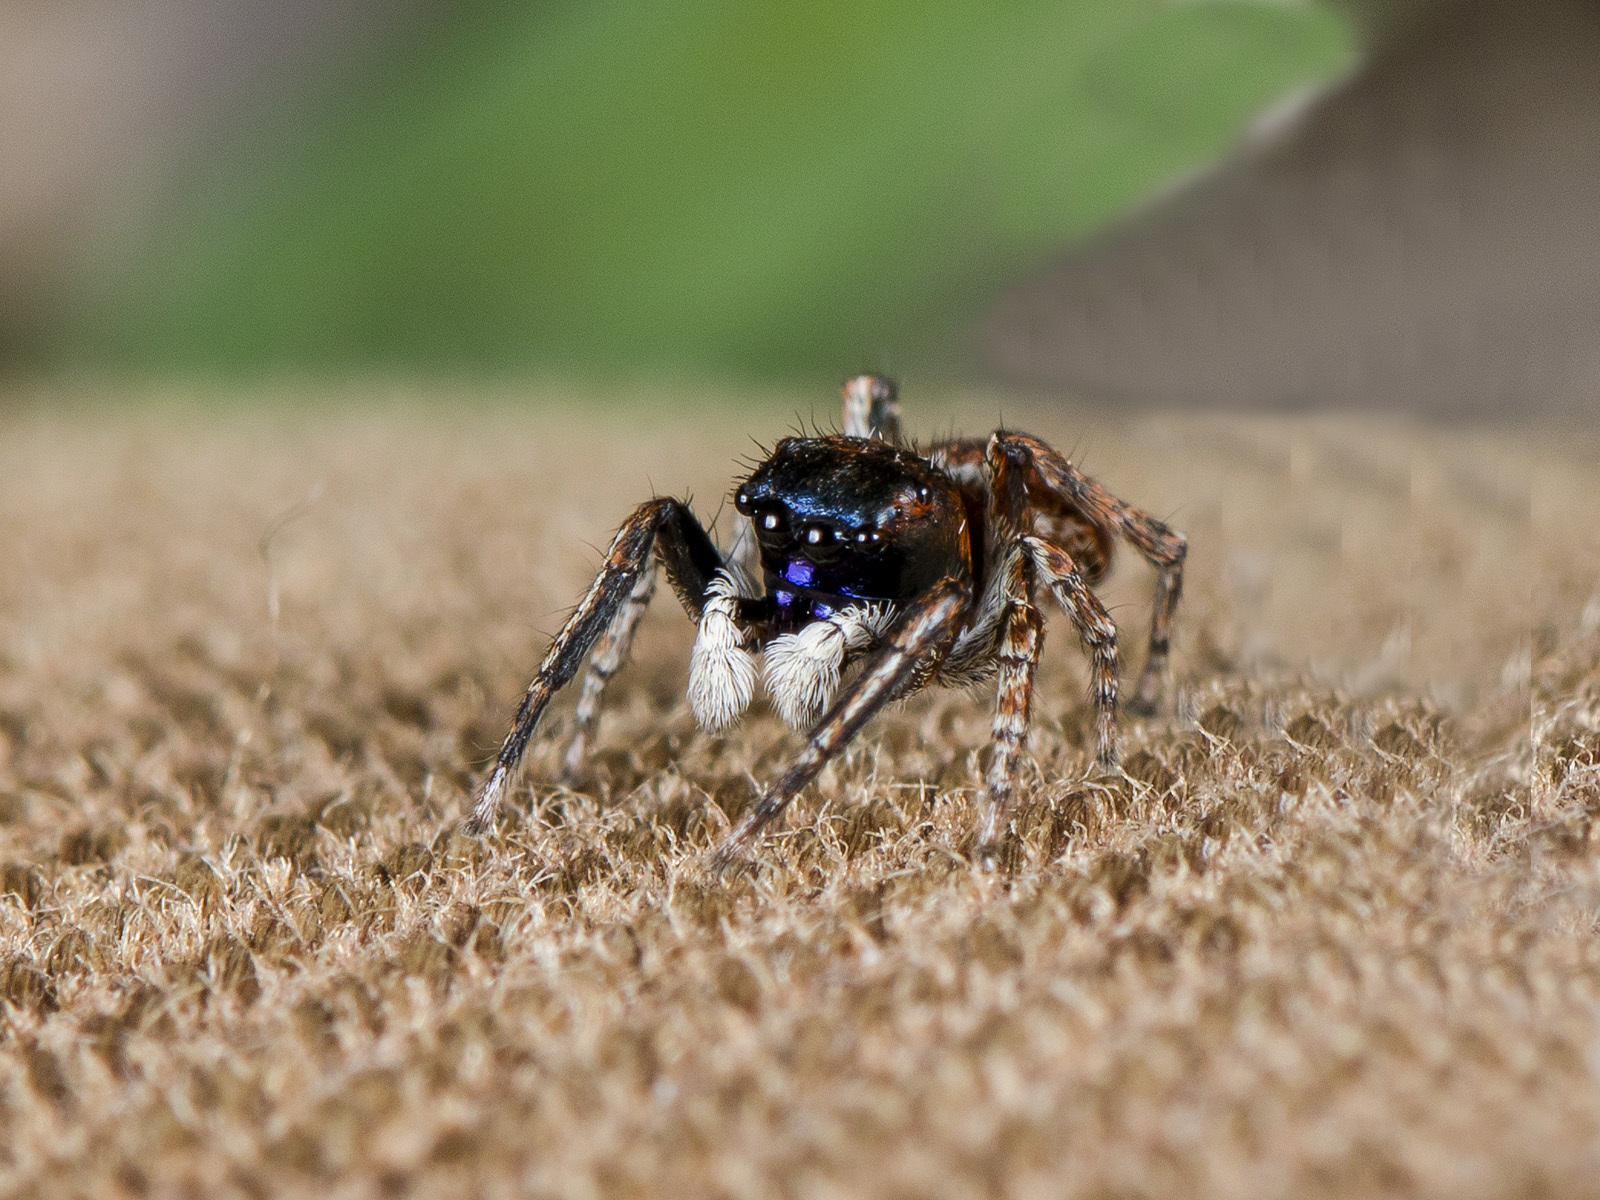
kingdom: Animalia
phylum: Arthropoda
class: Arachnida
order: Araneae
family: Salticidae
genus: Attulus
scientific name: Attulus mirandus
